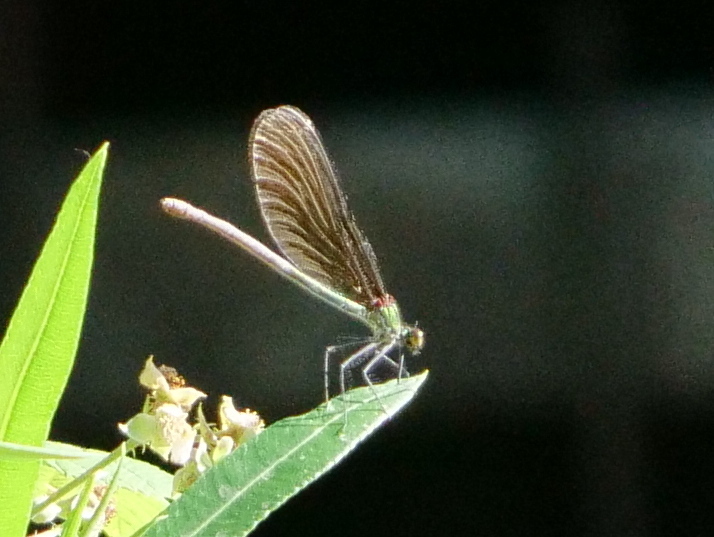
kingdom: Animalia
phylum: Arthropoda
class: Insecta
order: Odonata
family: Calopterygidae
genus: Calopteryx
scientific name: Calopteryx virgo
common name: Beautiful demoiselle
